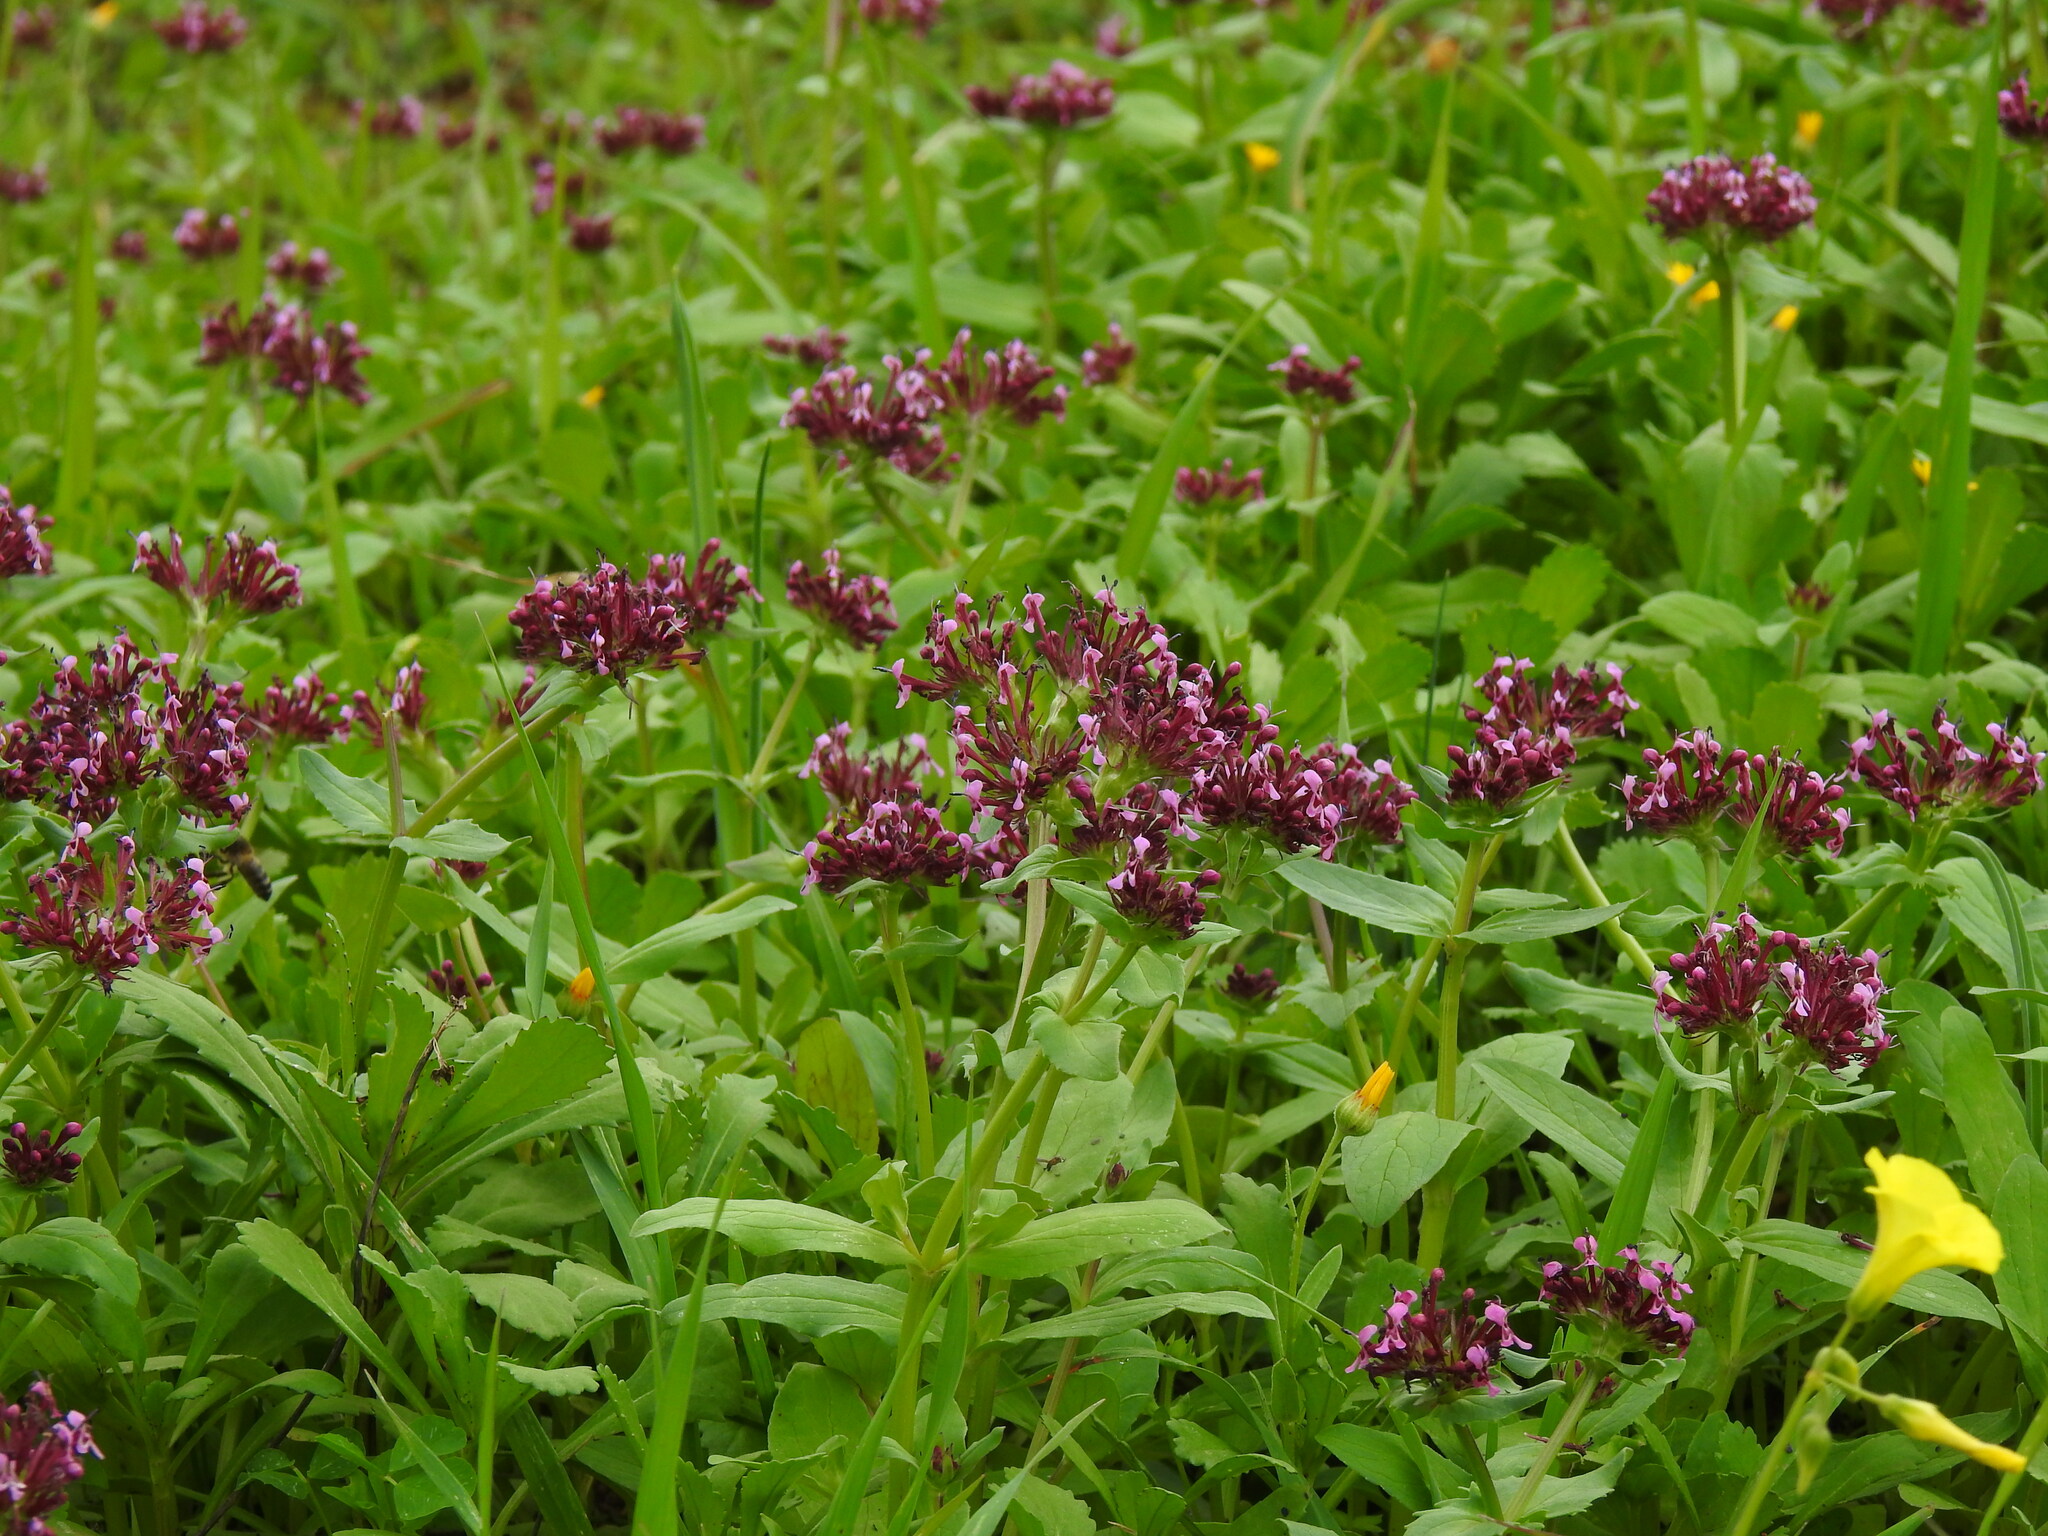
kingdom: Plantae
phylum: Tracheophyta
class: Magnoliopsida
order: Dipsacales
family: Caprifoliaceae
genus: Fedia
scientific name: Fedia cornucopiae
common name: Horn-of-plenty
